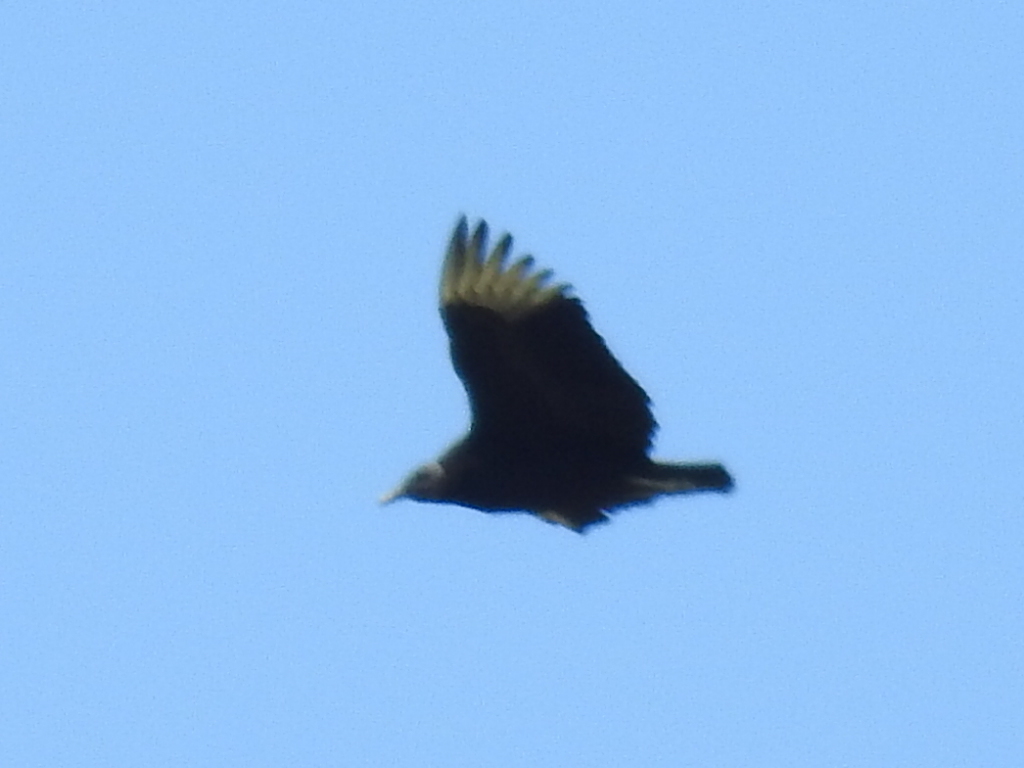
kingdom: Animalia
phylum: Chordata
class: Aves
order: Accipitriformes
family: Cathartidae
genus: Coragyps
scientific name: Coragyps atratus
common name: Black vulture
